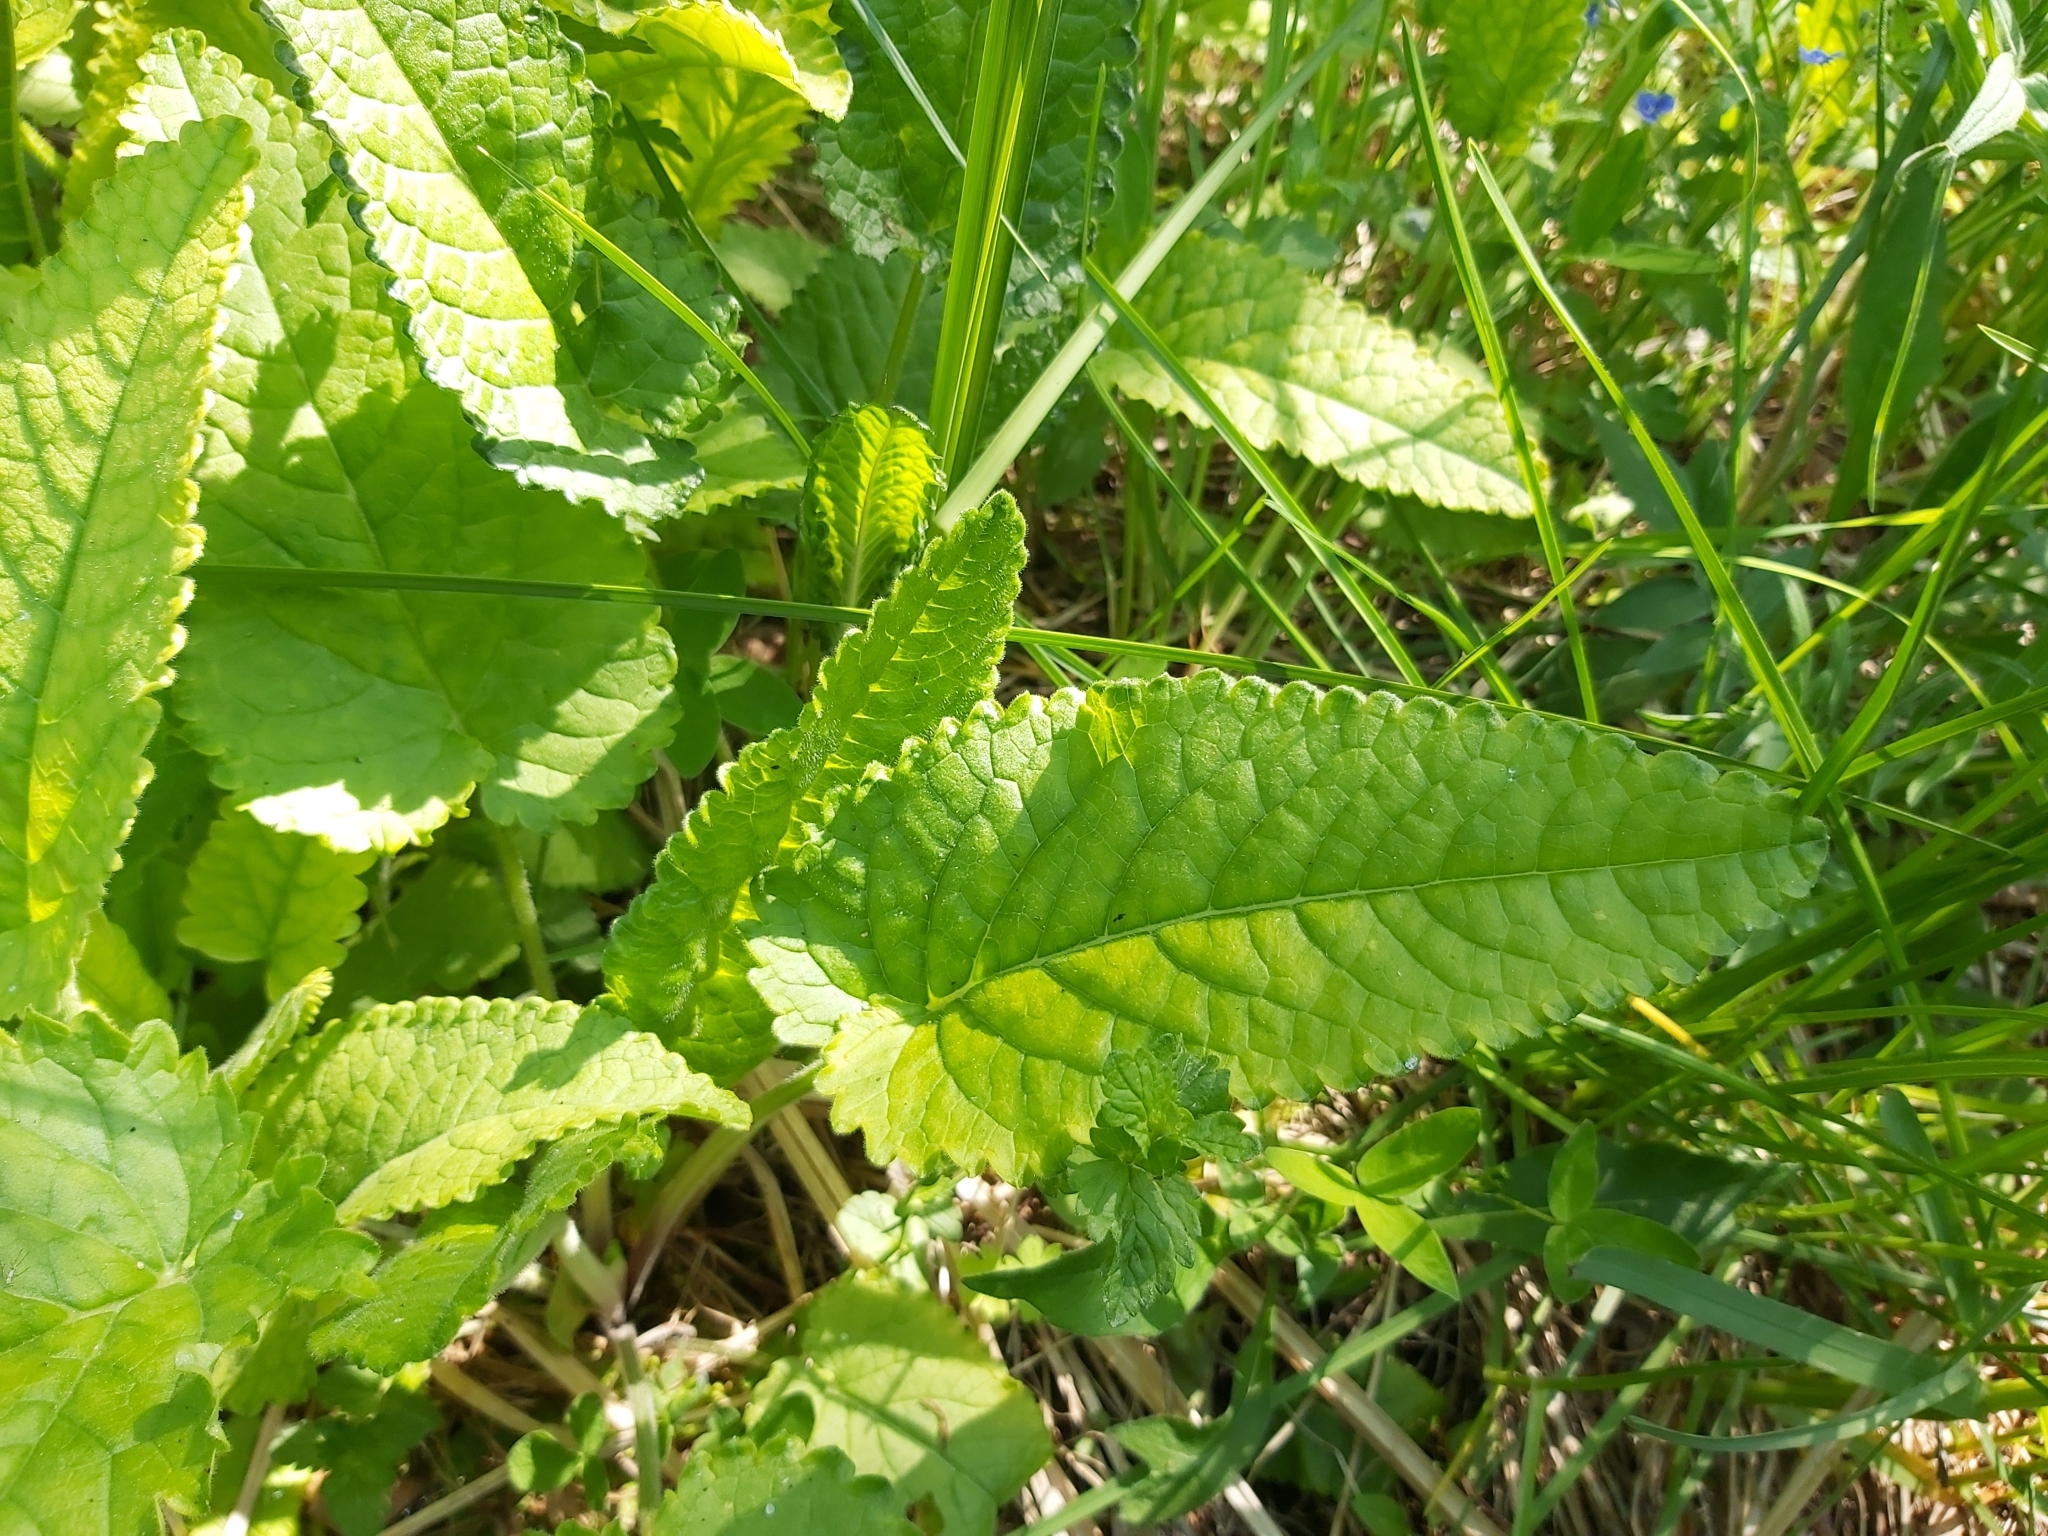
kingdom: Plantae
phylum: Tracheophyta
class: Magnoliopsida
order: Lamiales
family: Lamiaceae
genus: Betonica
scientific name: Betonica officinalis
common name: Bishop's-wort
